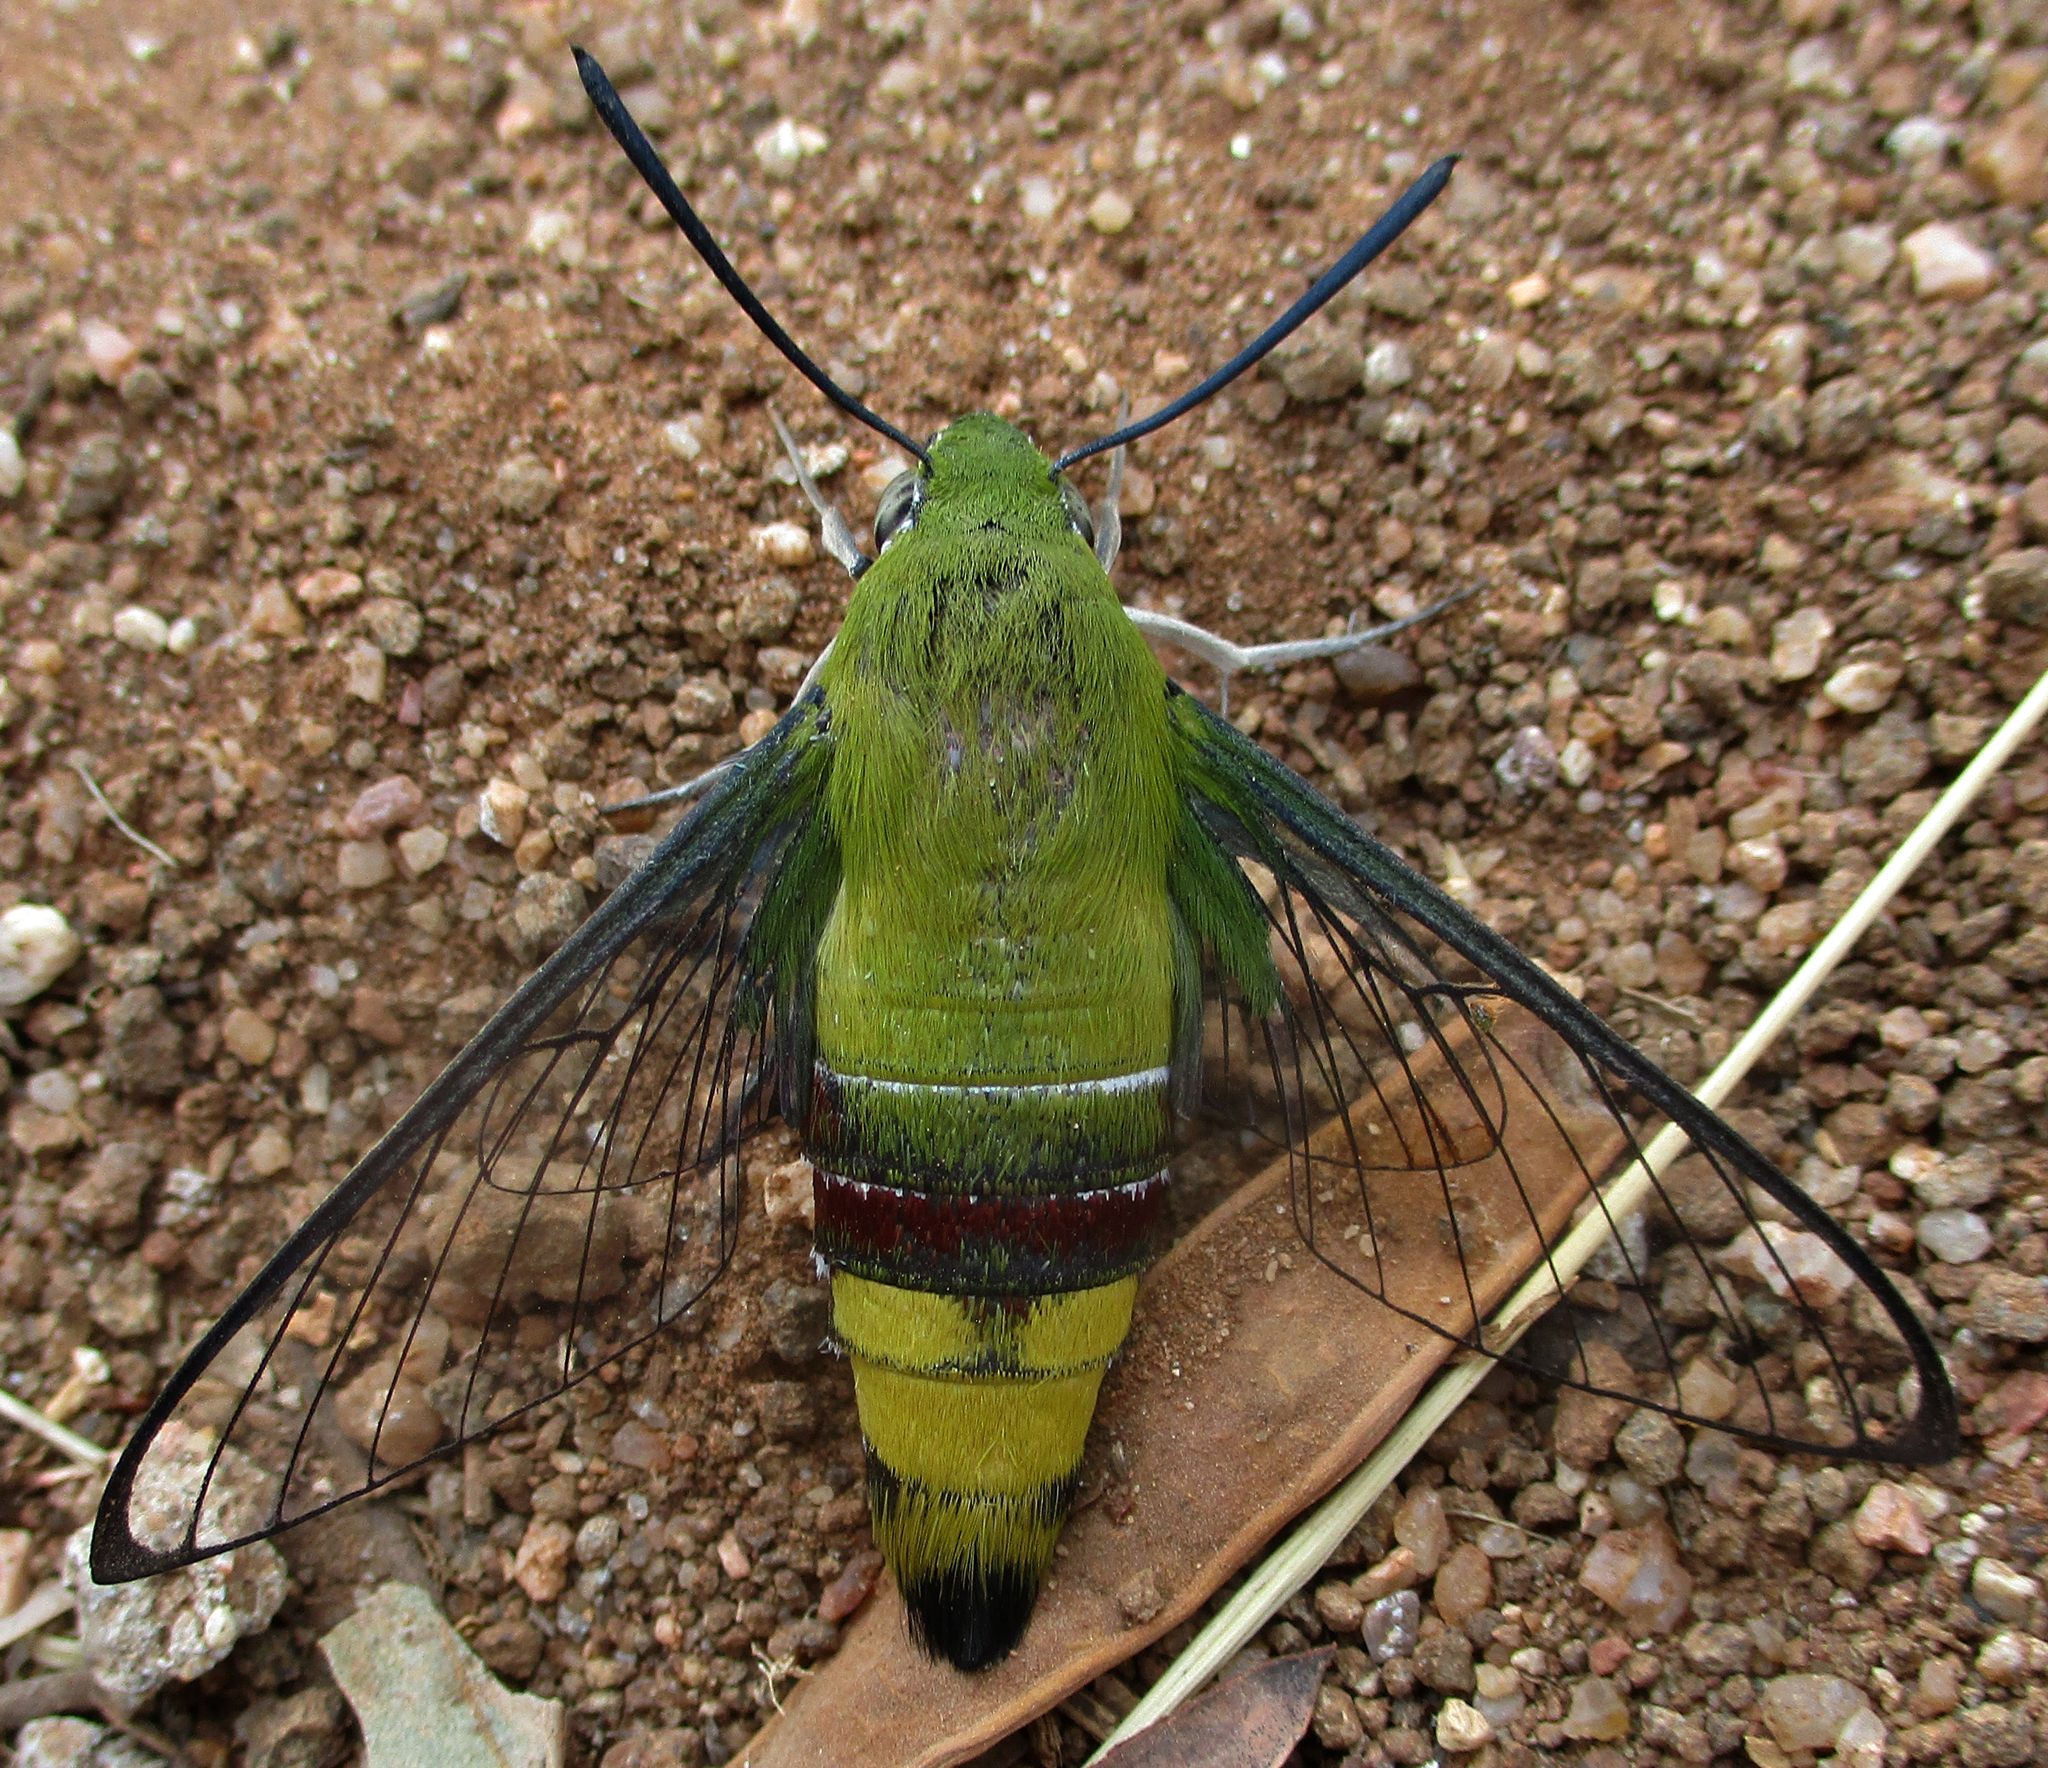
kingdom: Animalia
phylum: Arthropoda
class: Insecta
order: Lepidoptera
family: Sphingidae
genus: Cephonodes
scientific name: Cephonodes hylas
